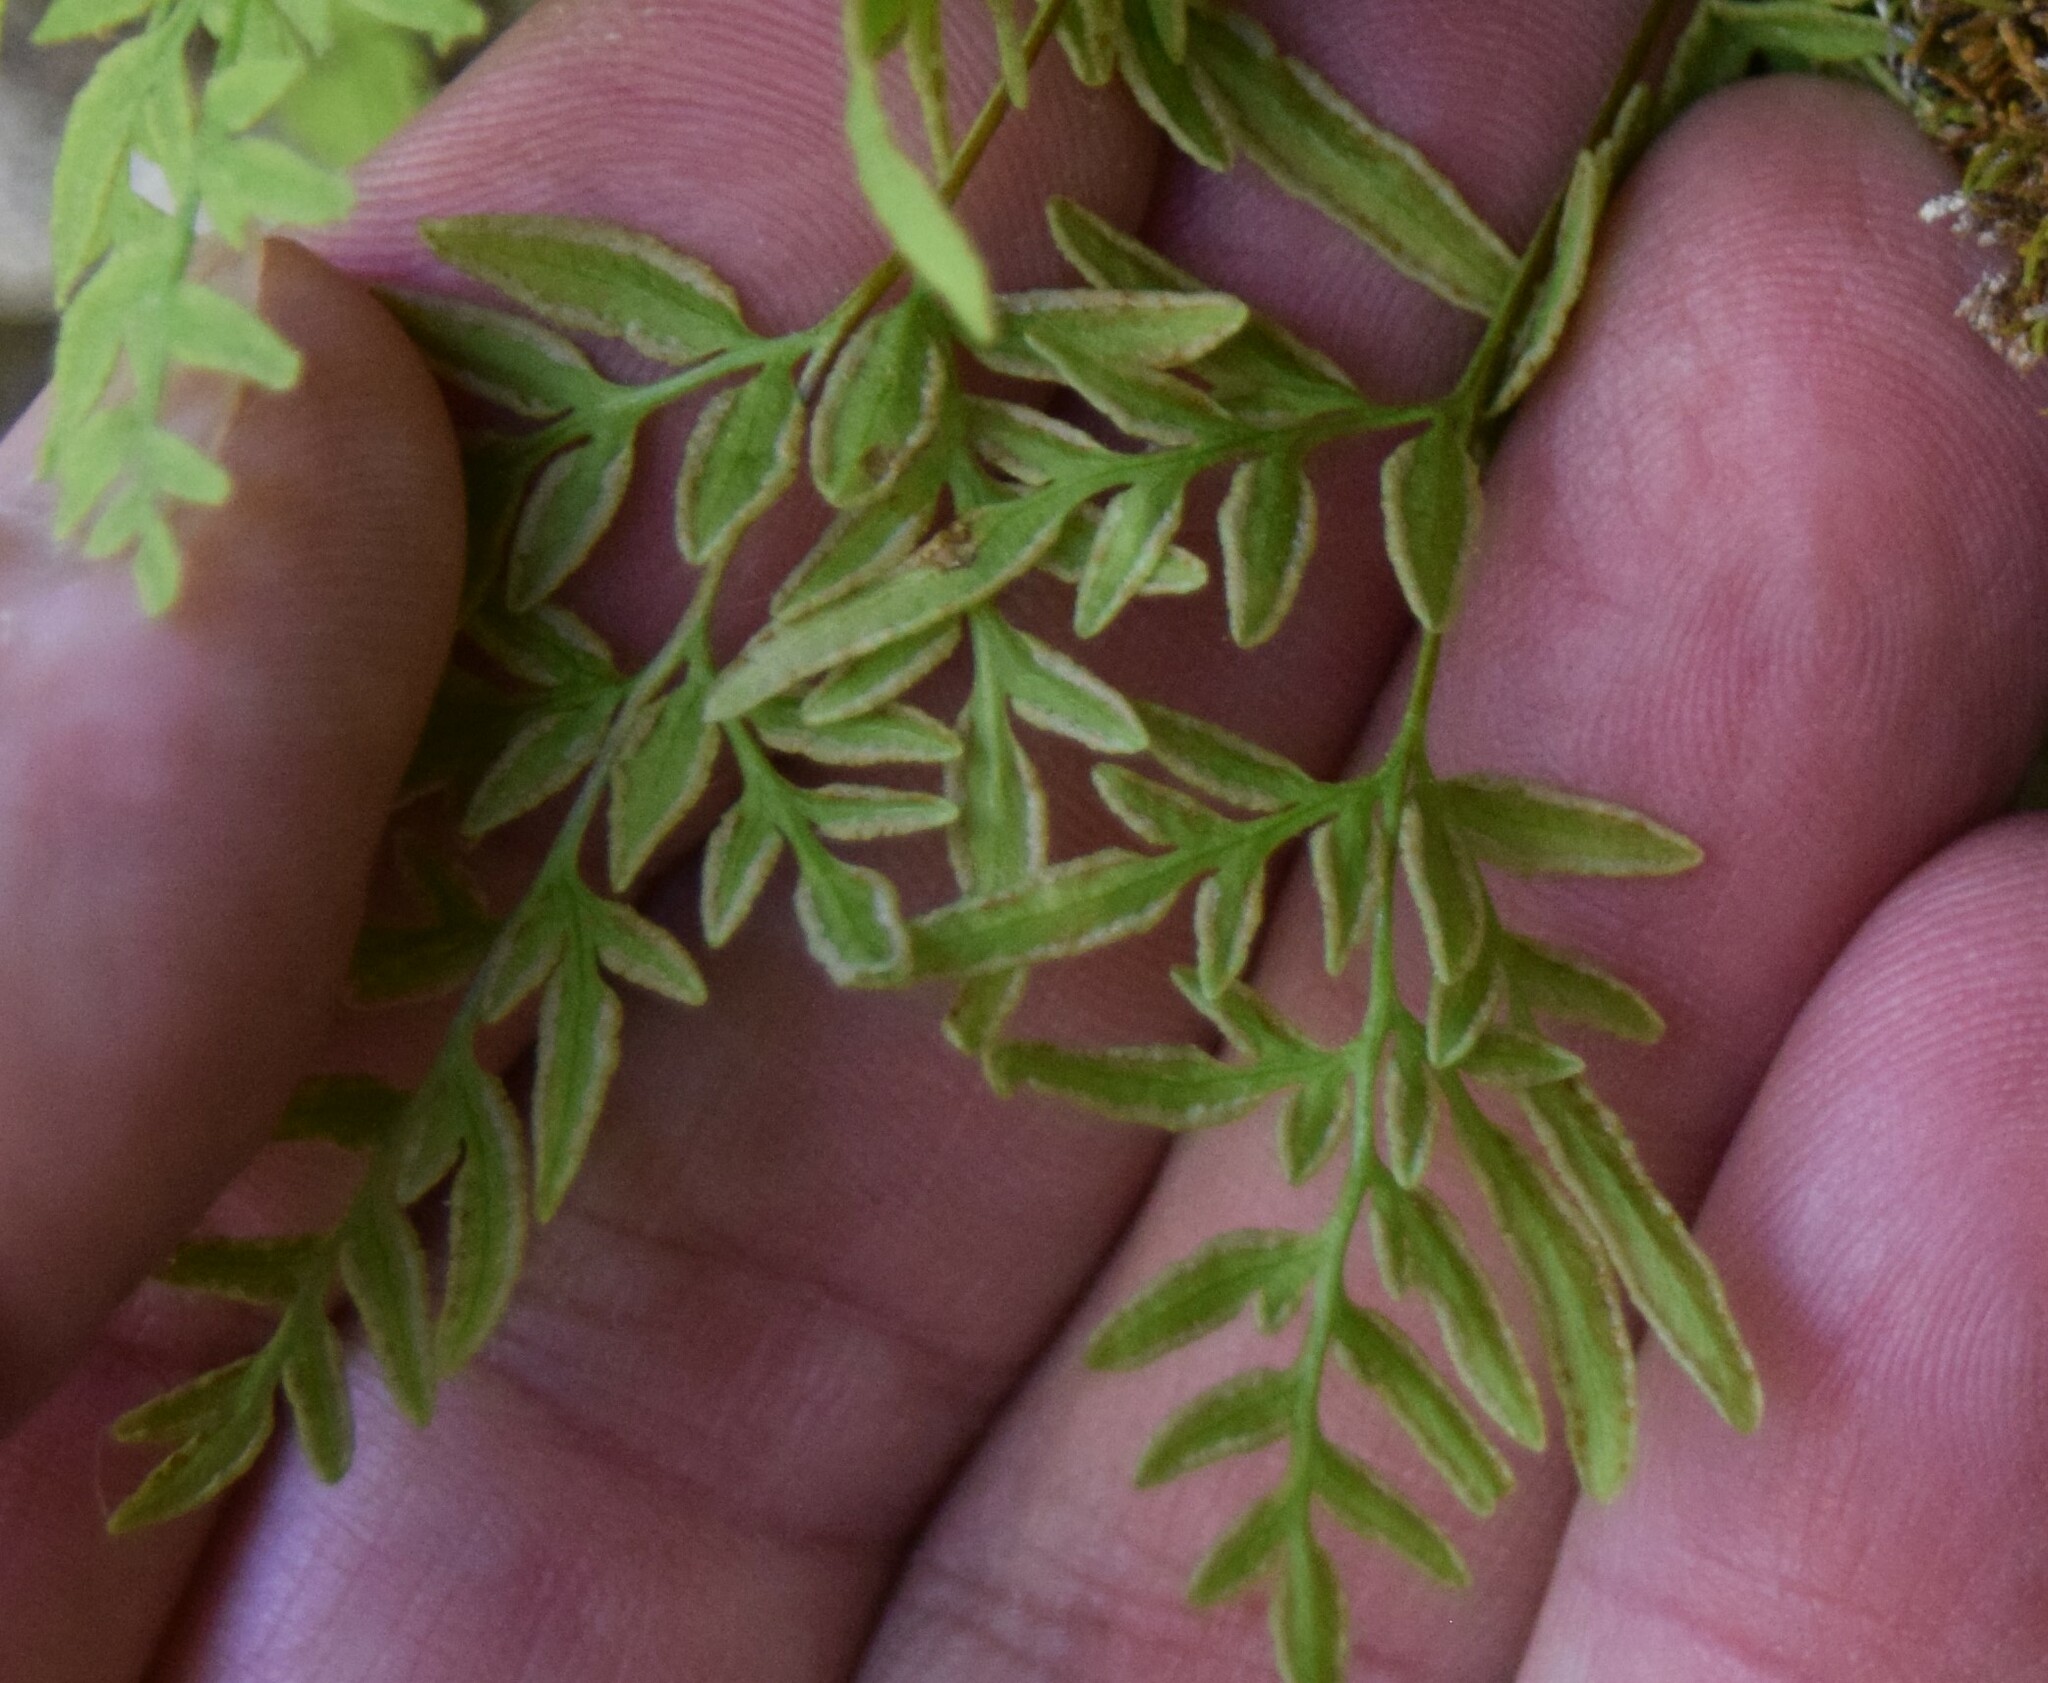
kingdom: Plantae
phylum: Tracheophyta
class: Polypodiopsida
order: Polypodiales
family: Pteridaceae
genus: Cryptogramma
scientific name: Cryptogramma stelleri
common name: Cliff-brake
